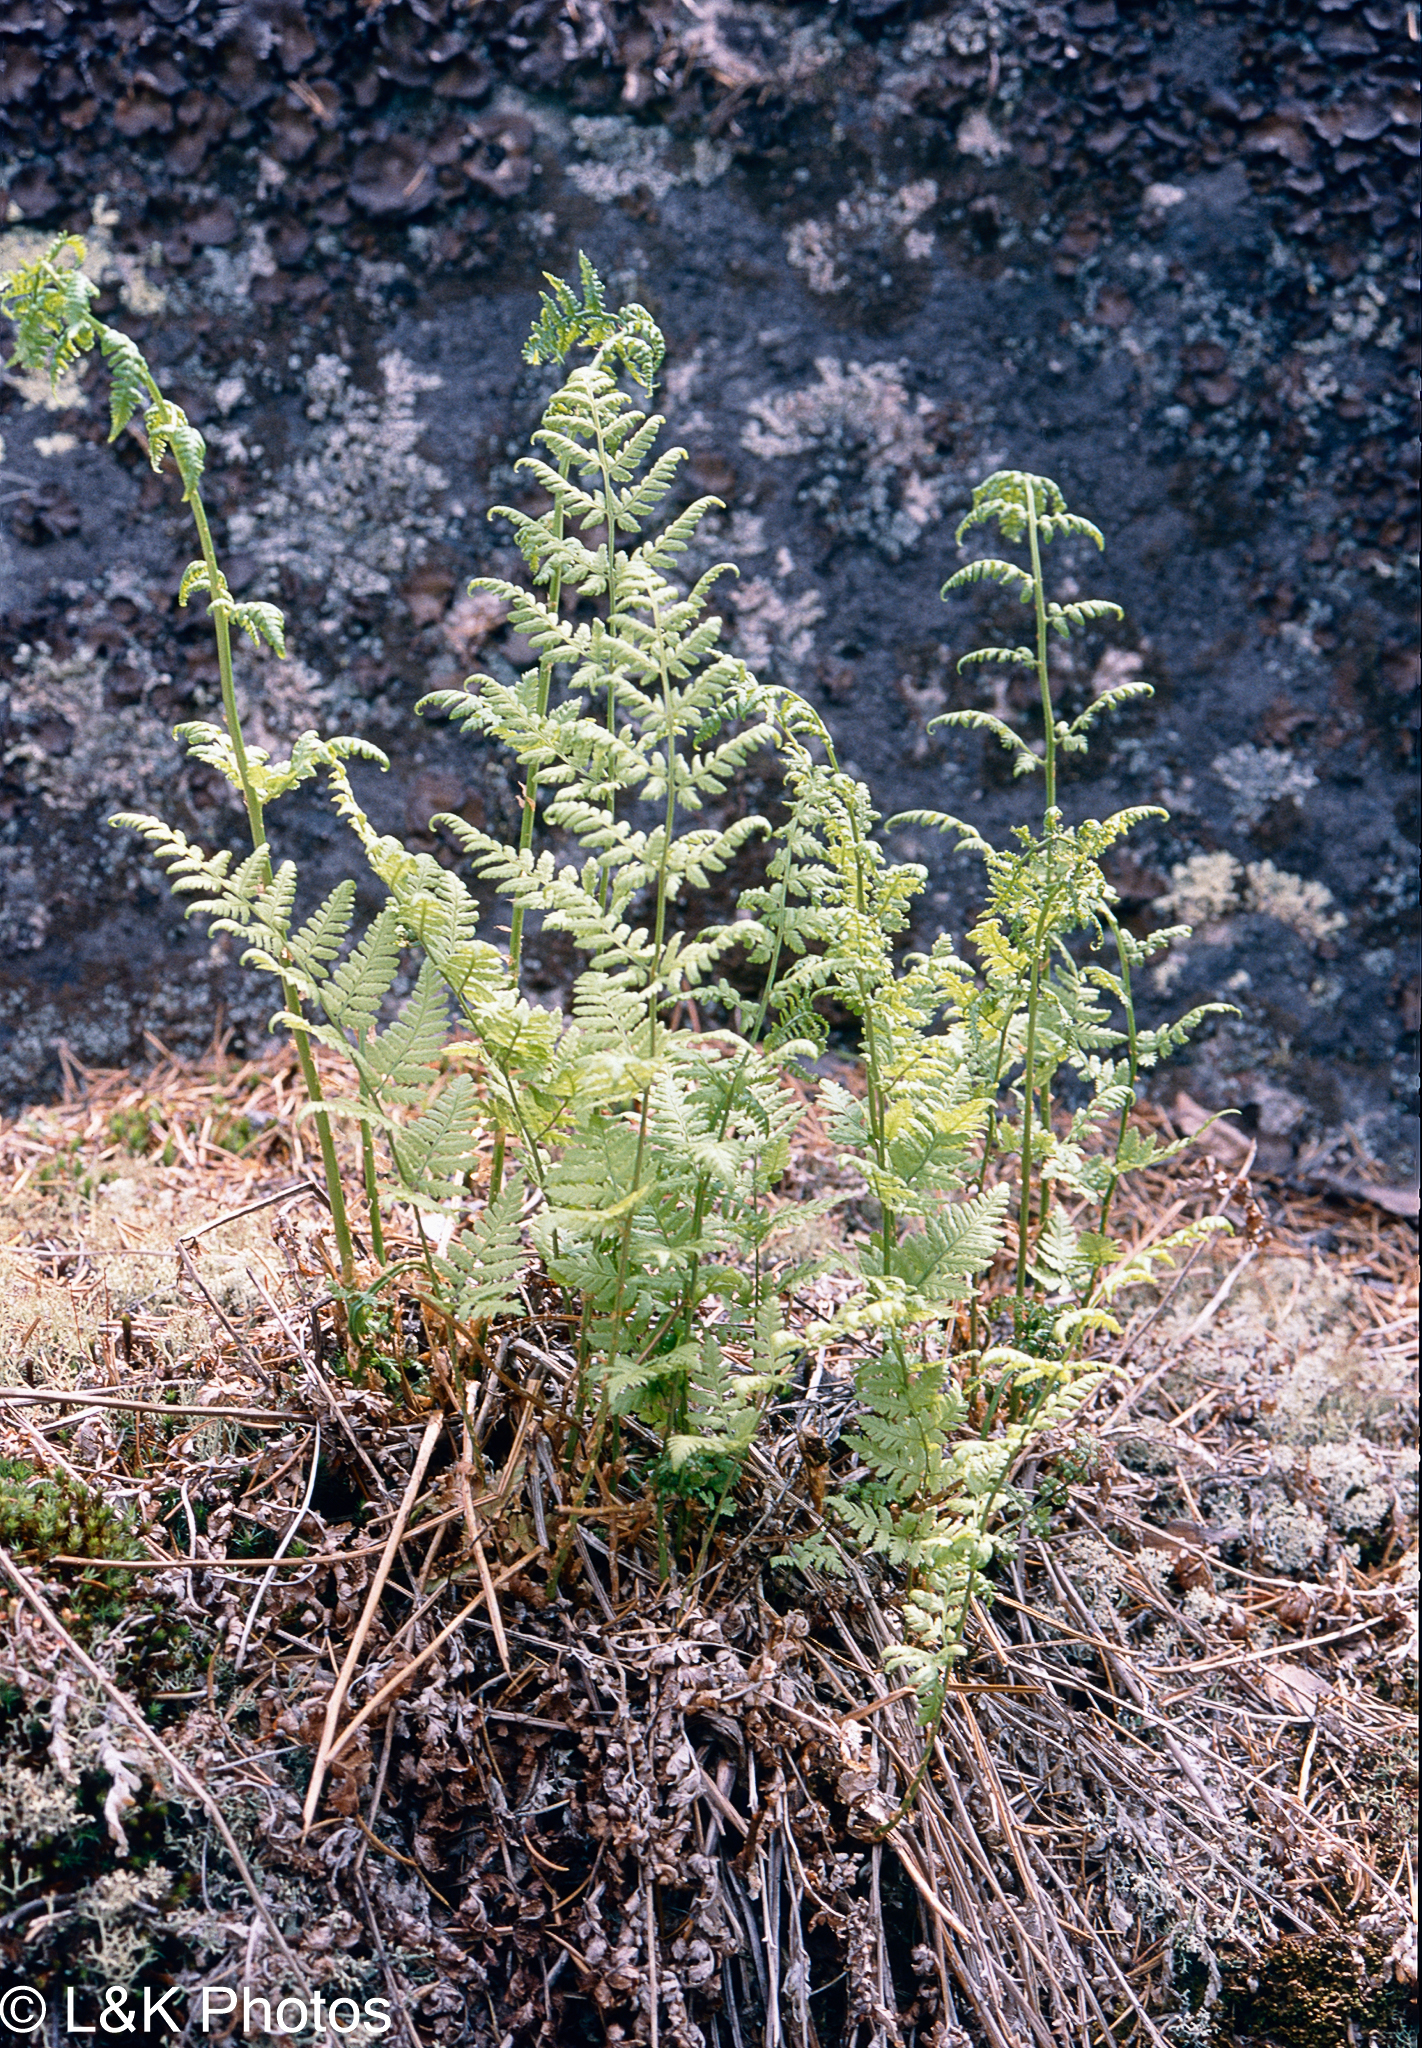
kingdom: Plantae
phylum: Tracheophyta
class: Polypodiopsida
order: Polypodiales
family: Dryopteridaceae
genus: Dryopteris
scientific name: Dryopteris carthusiana
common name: Narrow buckler-fern
